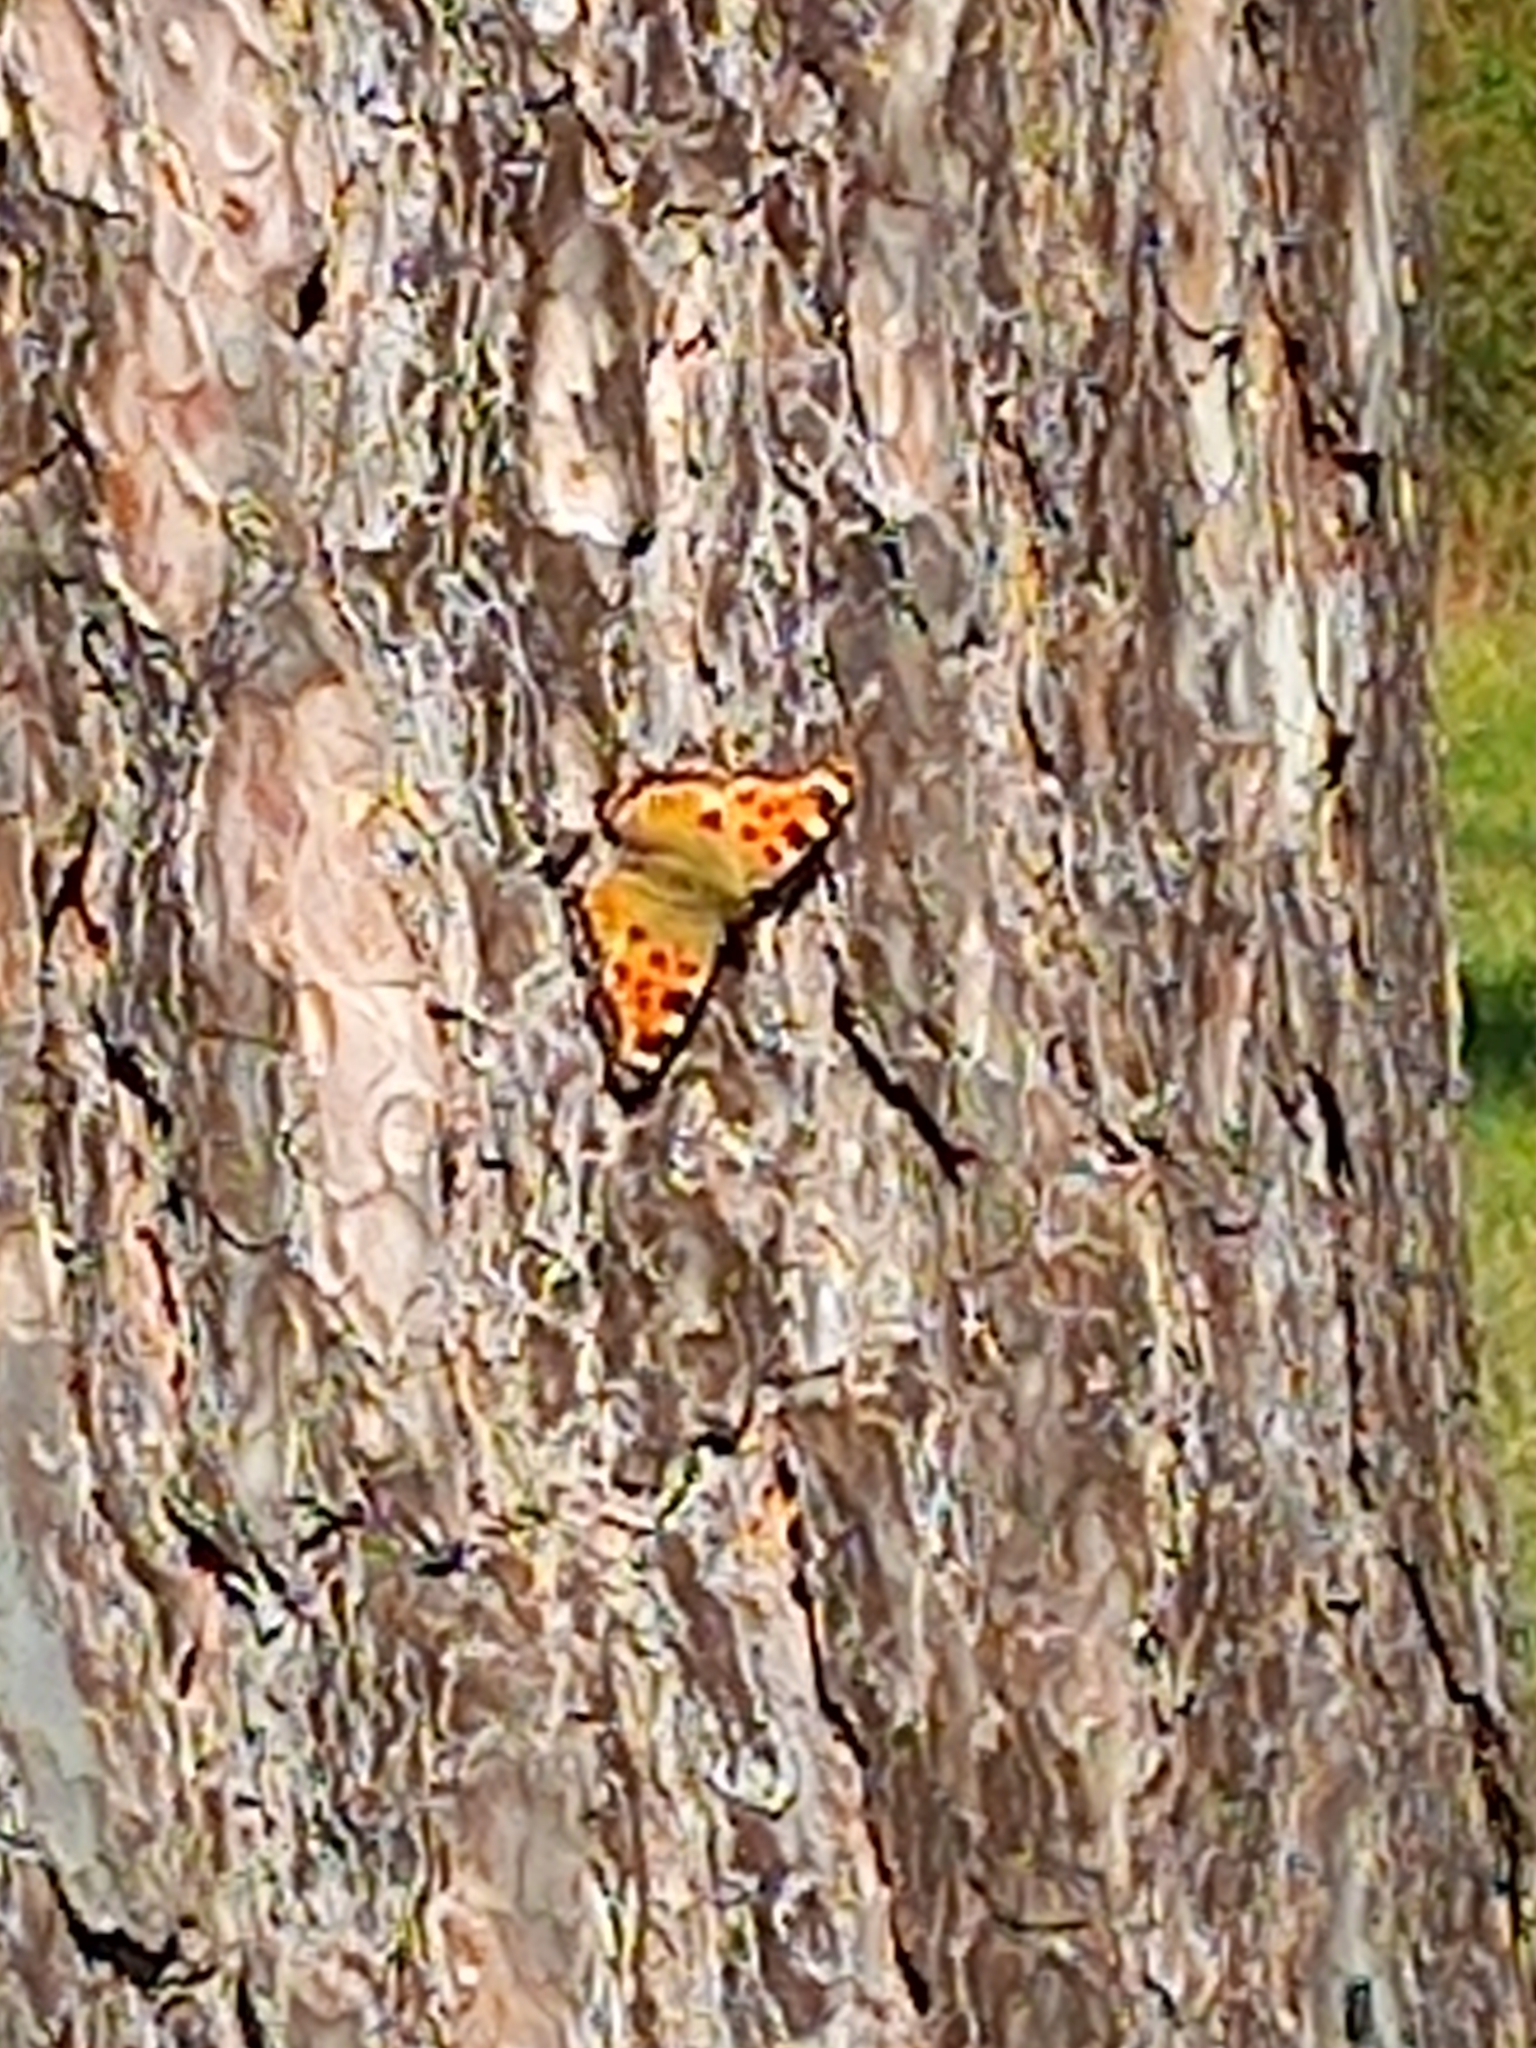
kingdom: Animalia
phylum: Arthropoda
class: Insecta
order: Lepidoptera
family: Nymphalidae
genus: Nymphalis
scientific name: Nymphalis polychloros
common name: Large tortoiseshell
